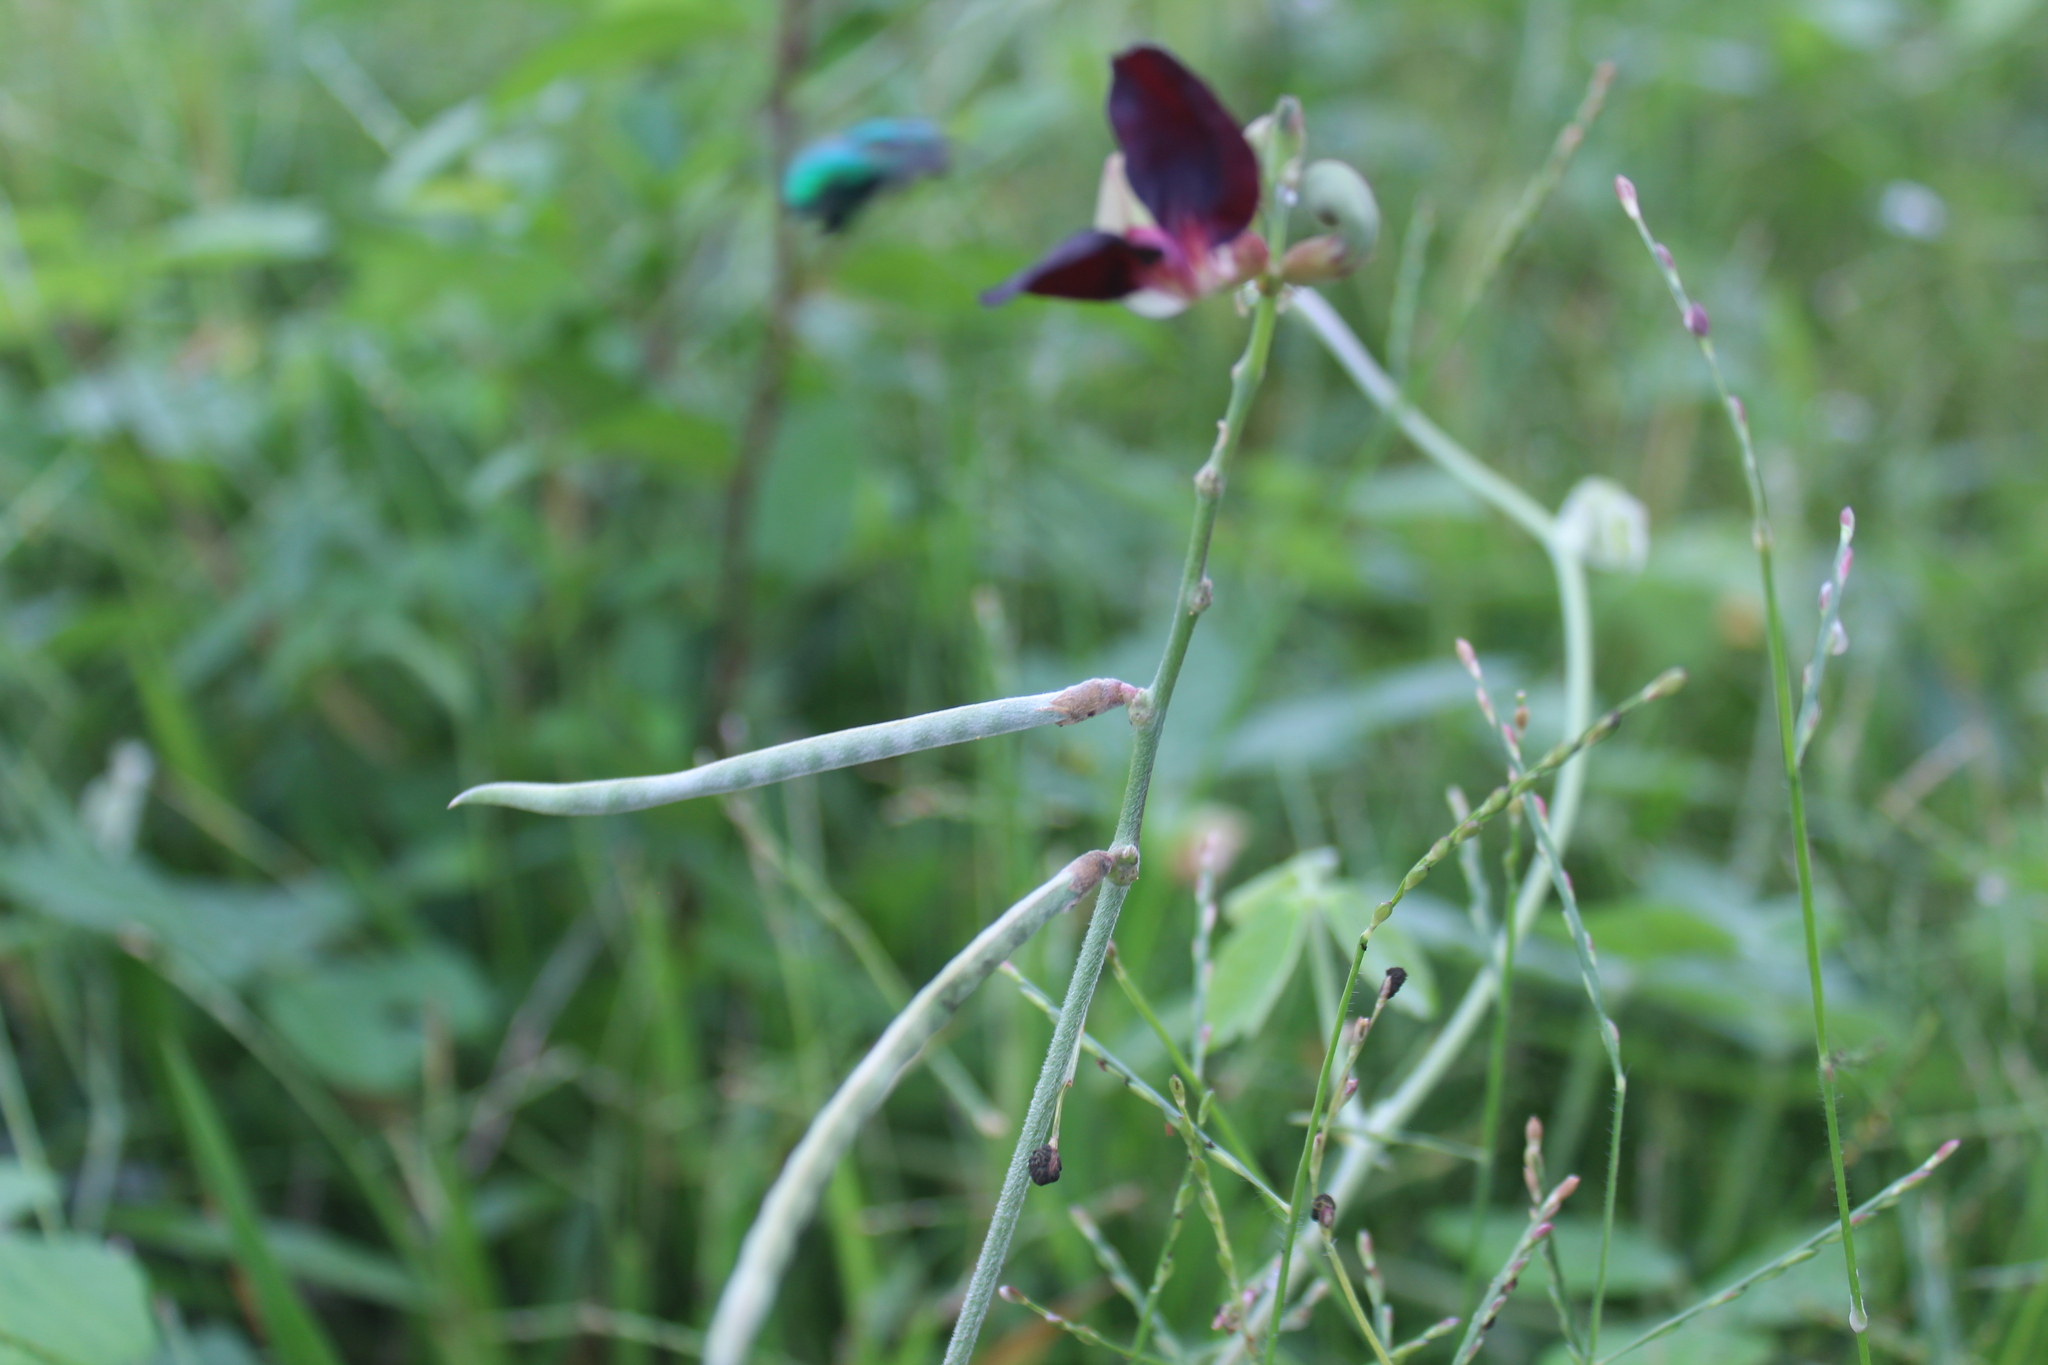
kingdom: Plantae
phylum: Tracheophyta
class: Magnoliopsida
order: Fabales
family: Fabaceae
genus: Macroptilium
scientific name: Macroptilium atropurpureum
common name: Purple bushbean
